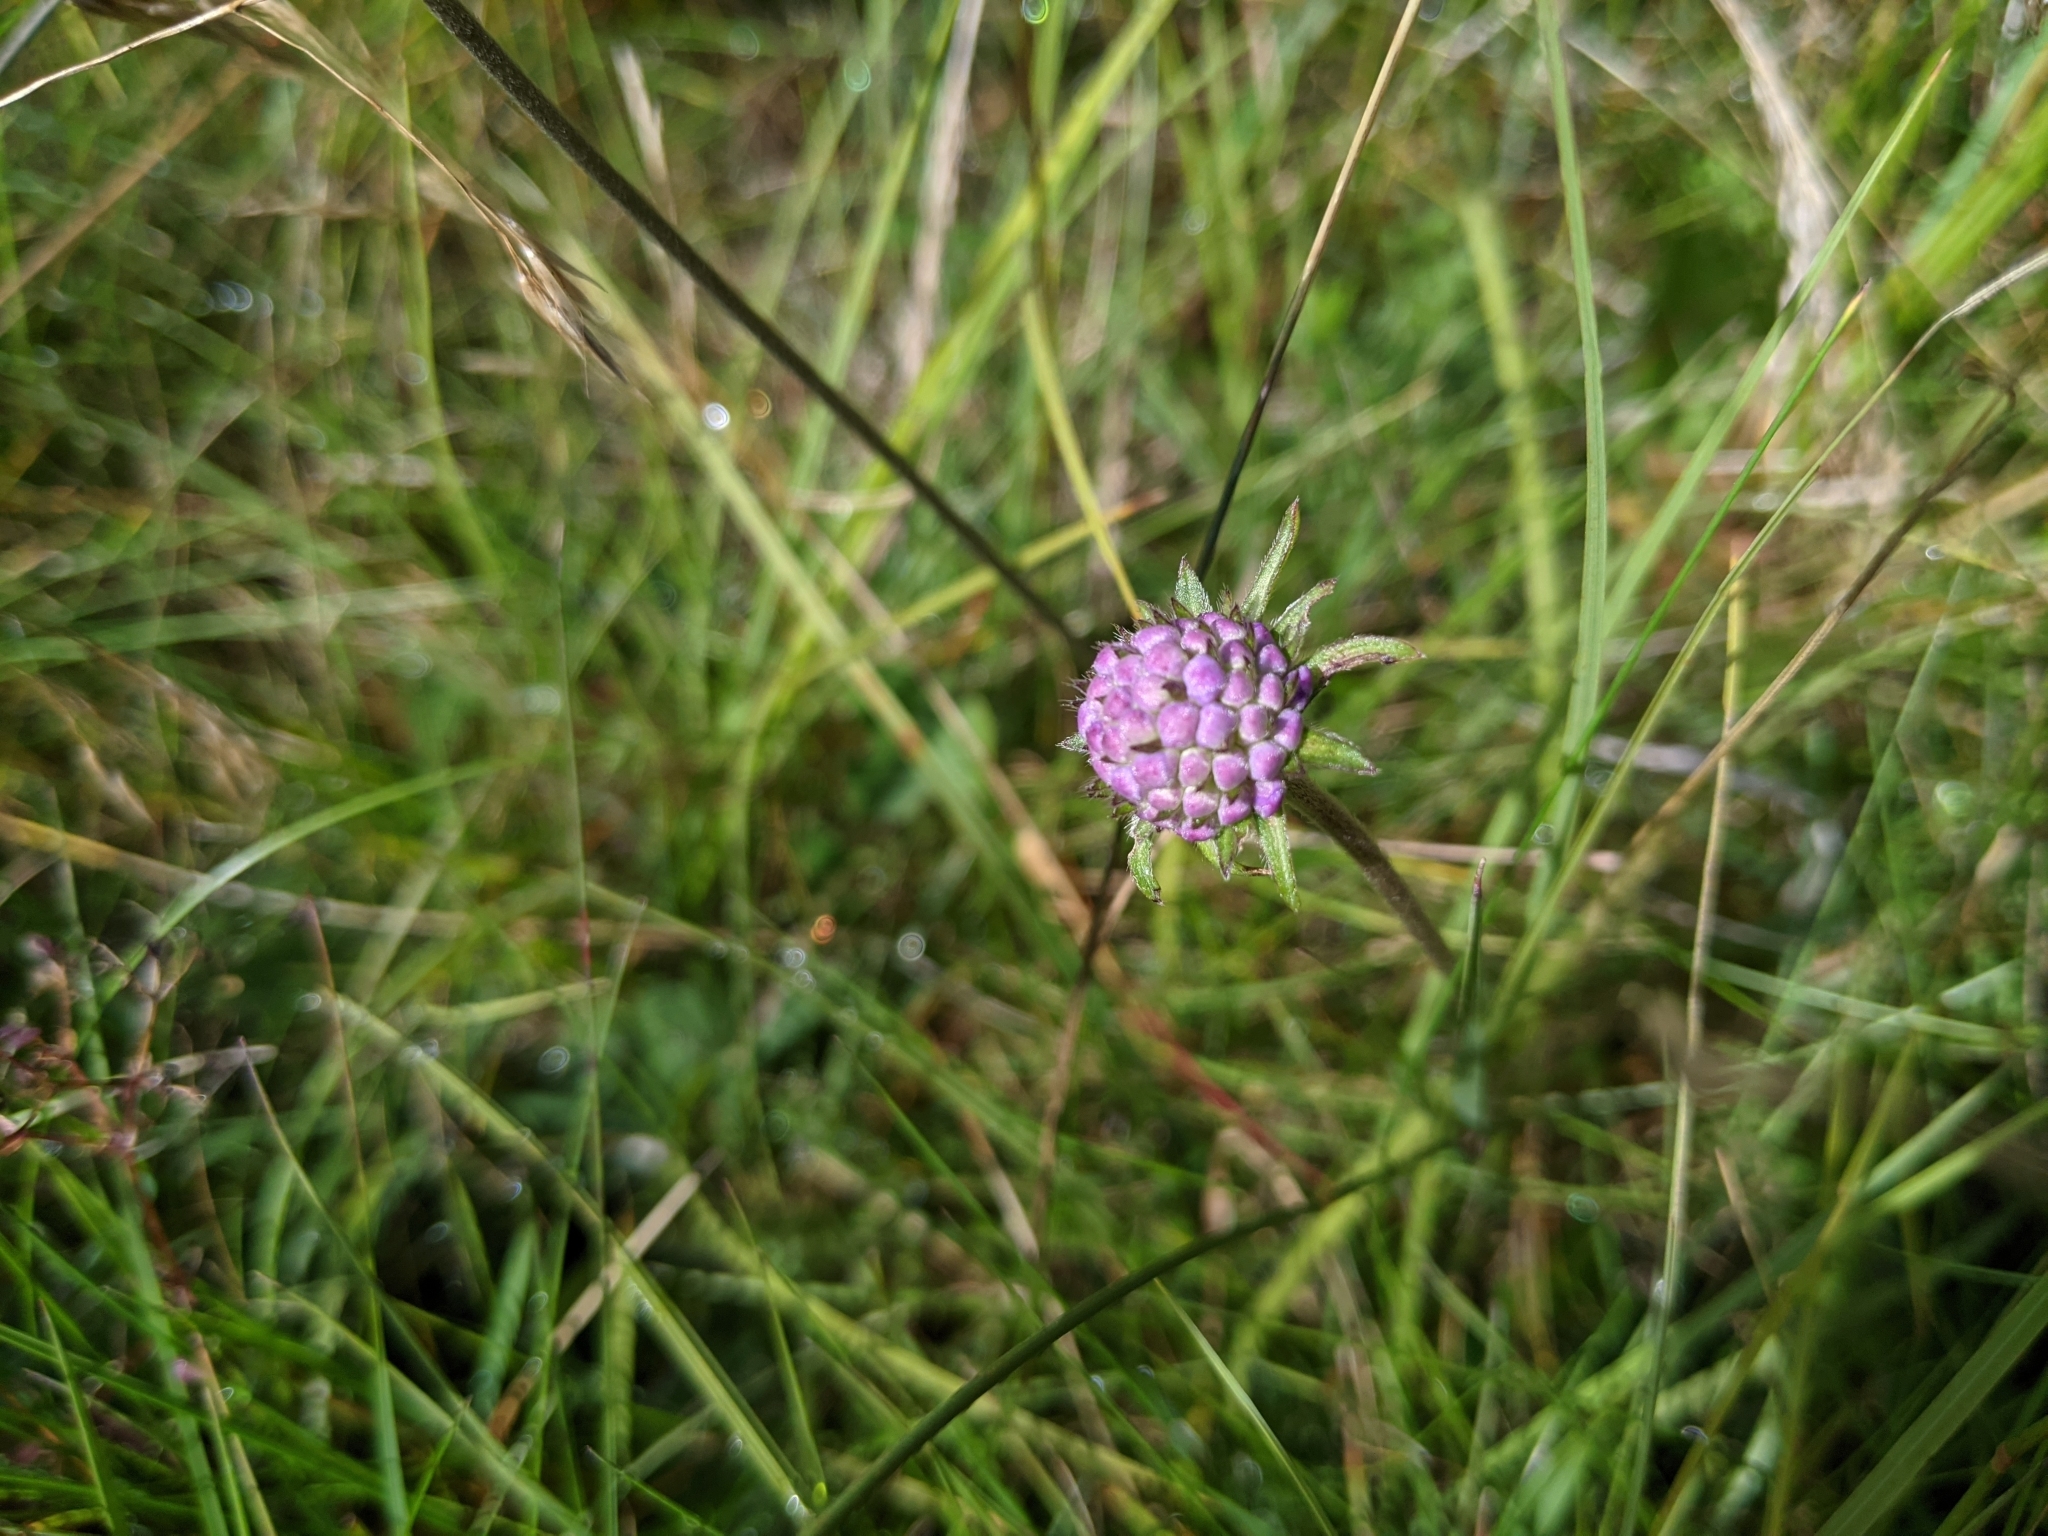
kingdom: Plantae
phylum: Tracheophyta
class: Magnoliopsida
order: Dipsacales
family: Caprifoliaceae
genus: Succisa
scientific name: Succisa pratensis
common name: Devil's-bit
